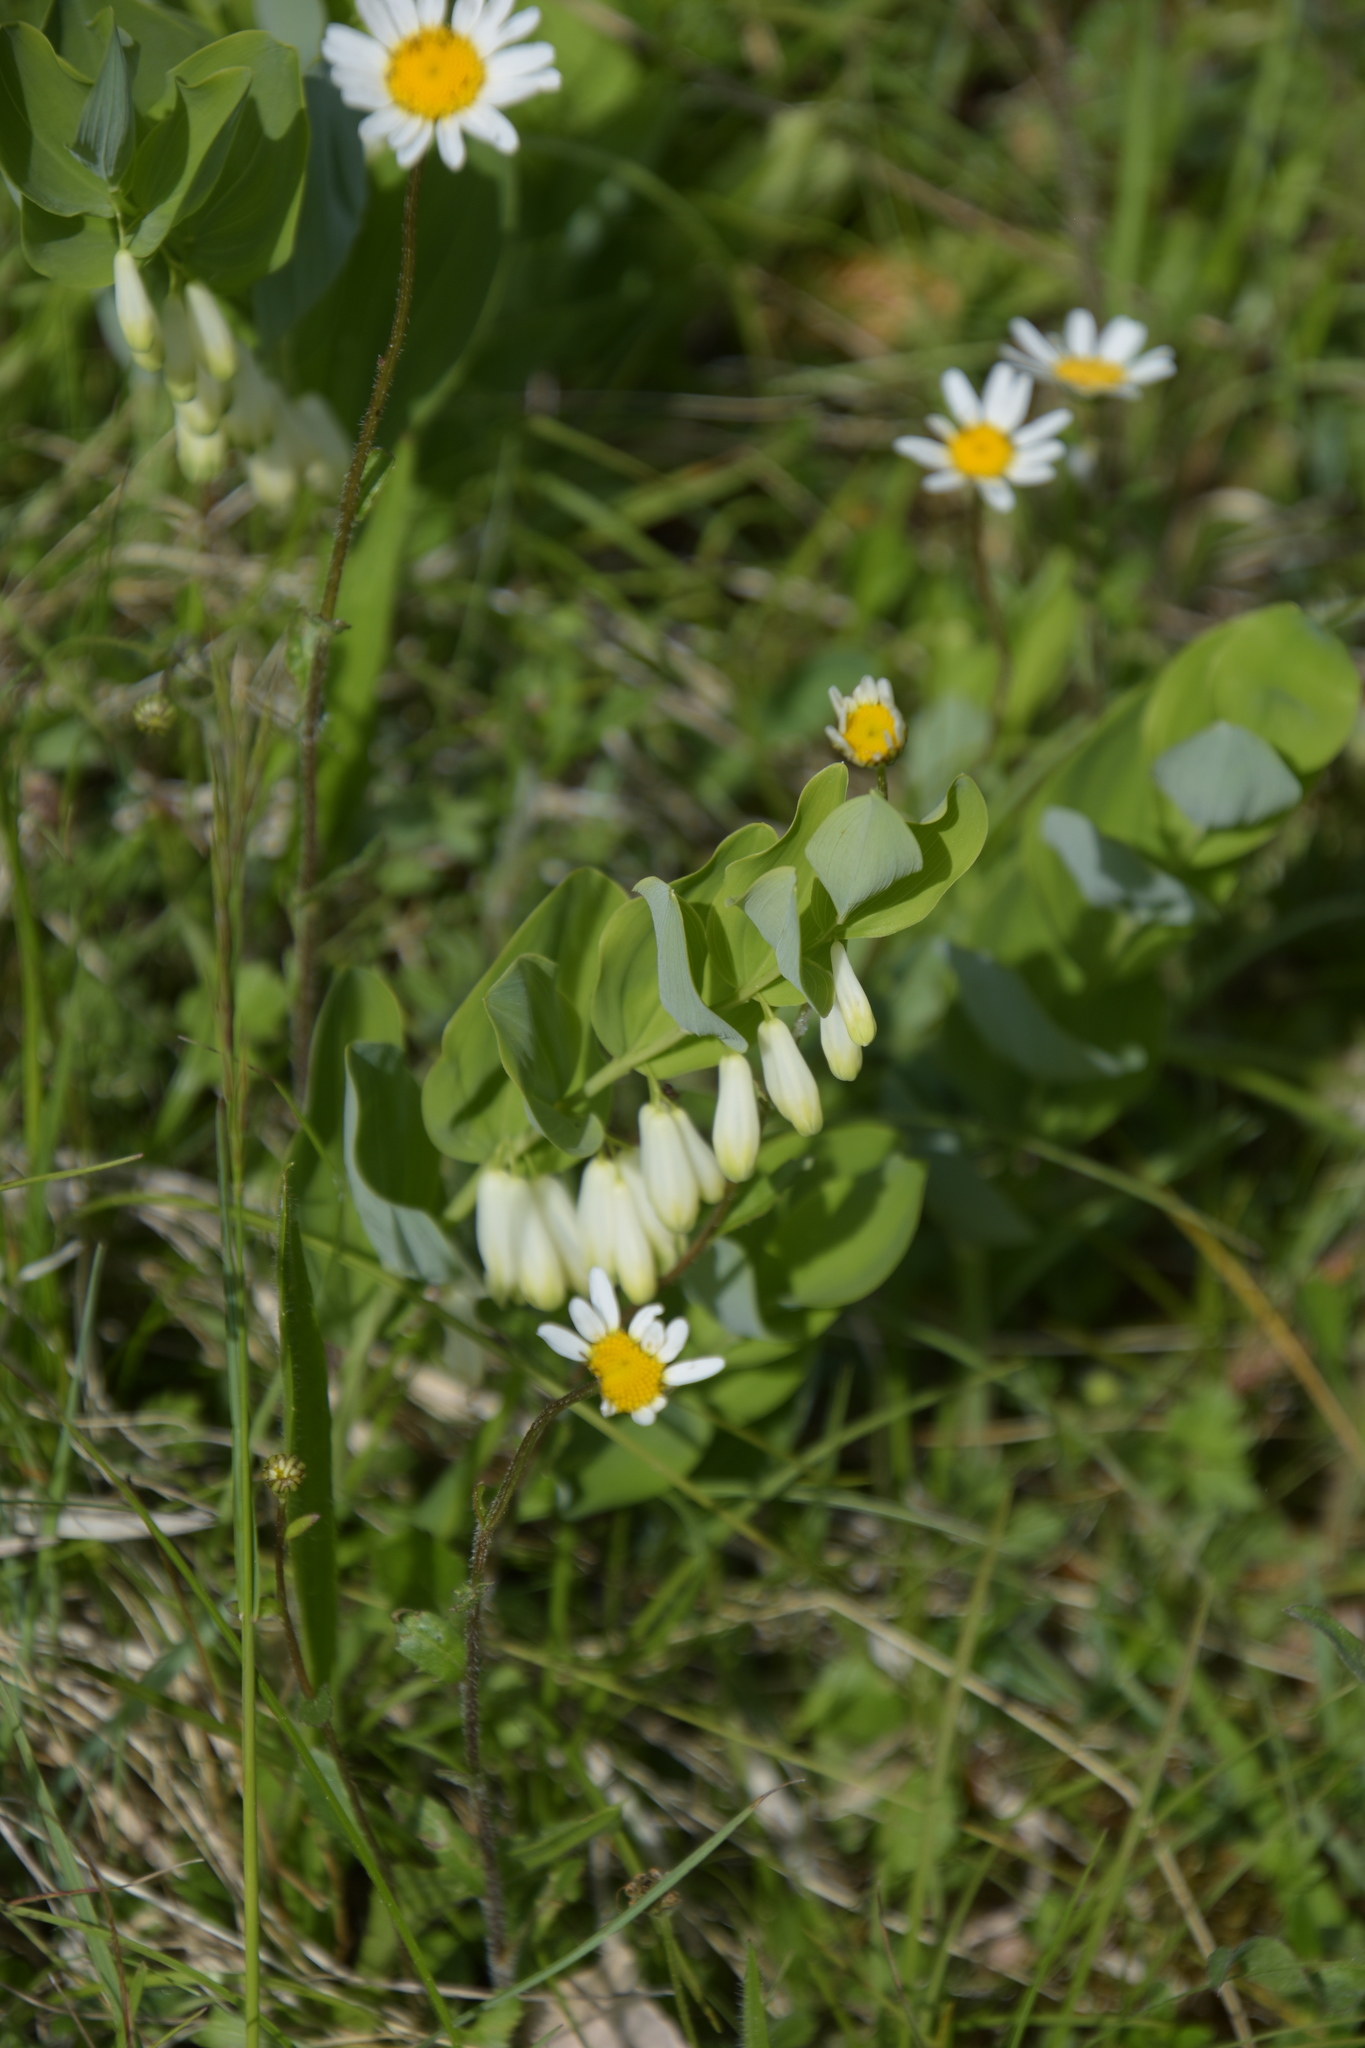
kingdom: Plantae
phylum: Tracheophyta
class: Liliopsida
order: Asparagales
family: Asparagaceae
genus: Polygonatum
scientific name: Polygonatum odoratum
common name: Angular solomon's-seal
